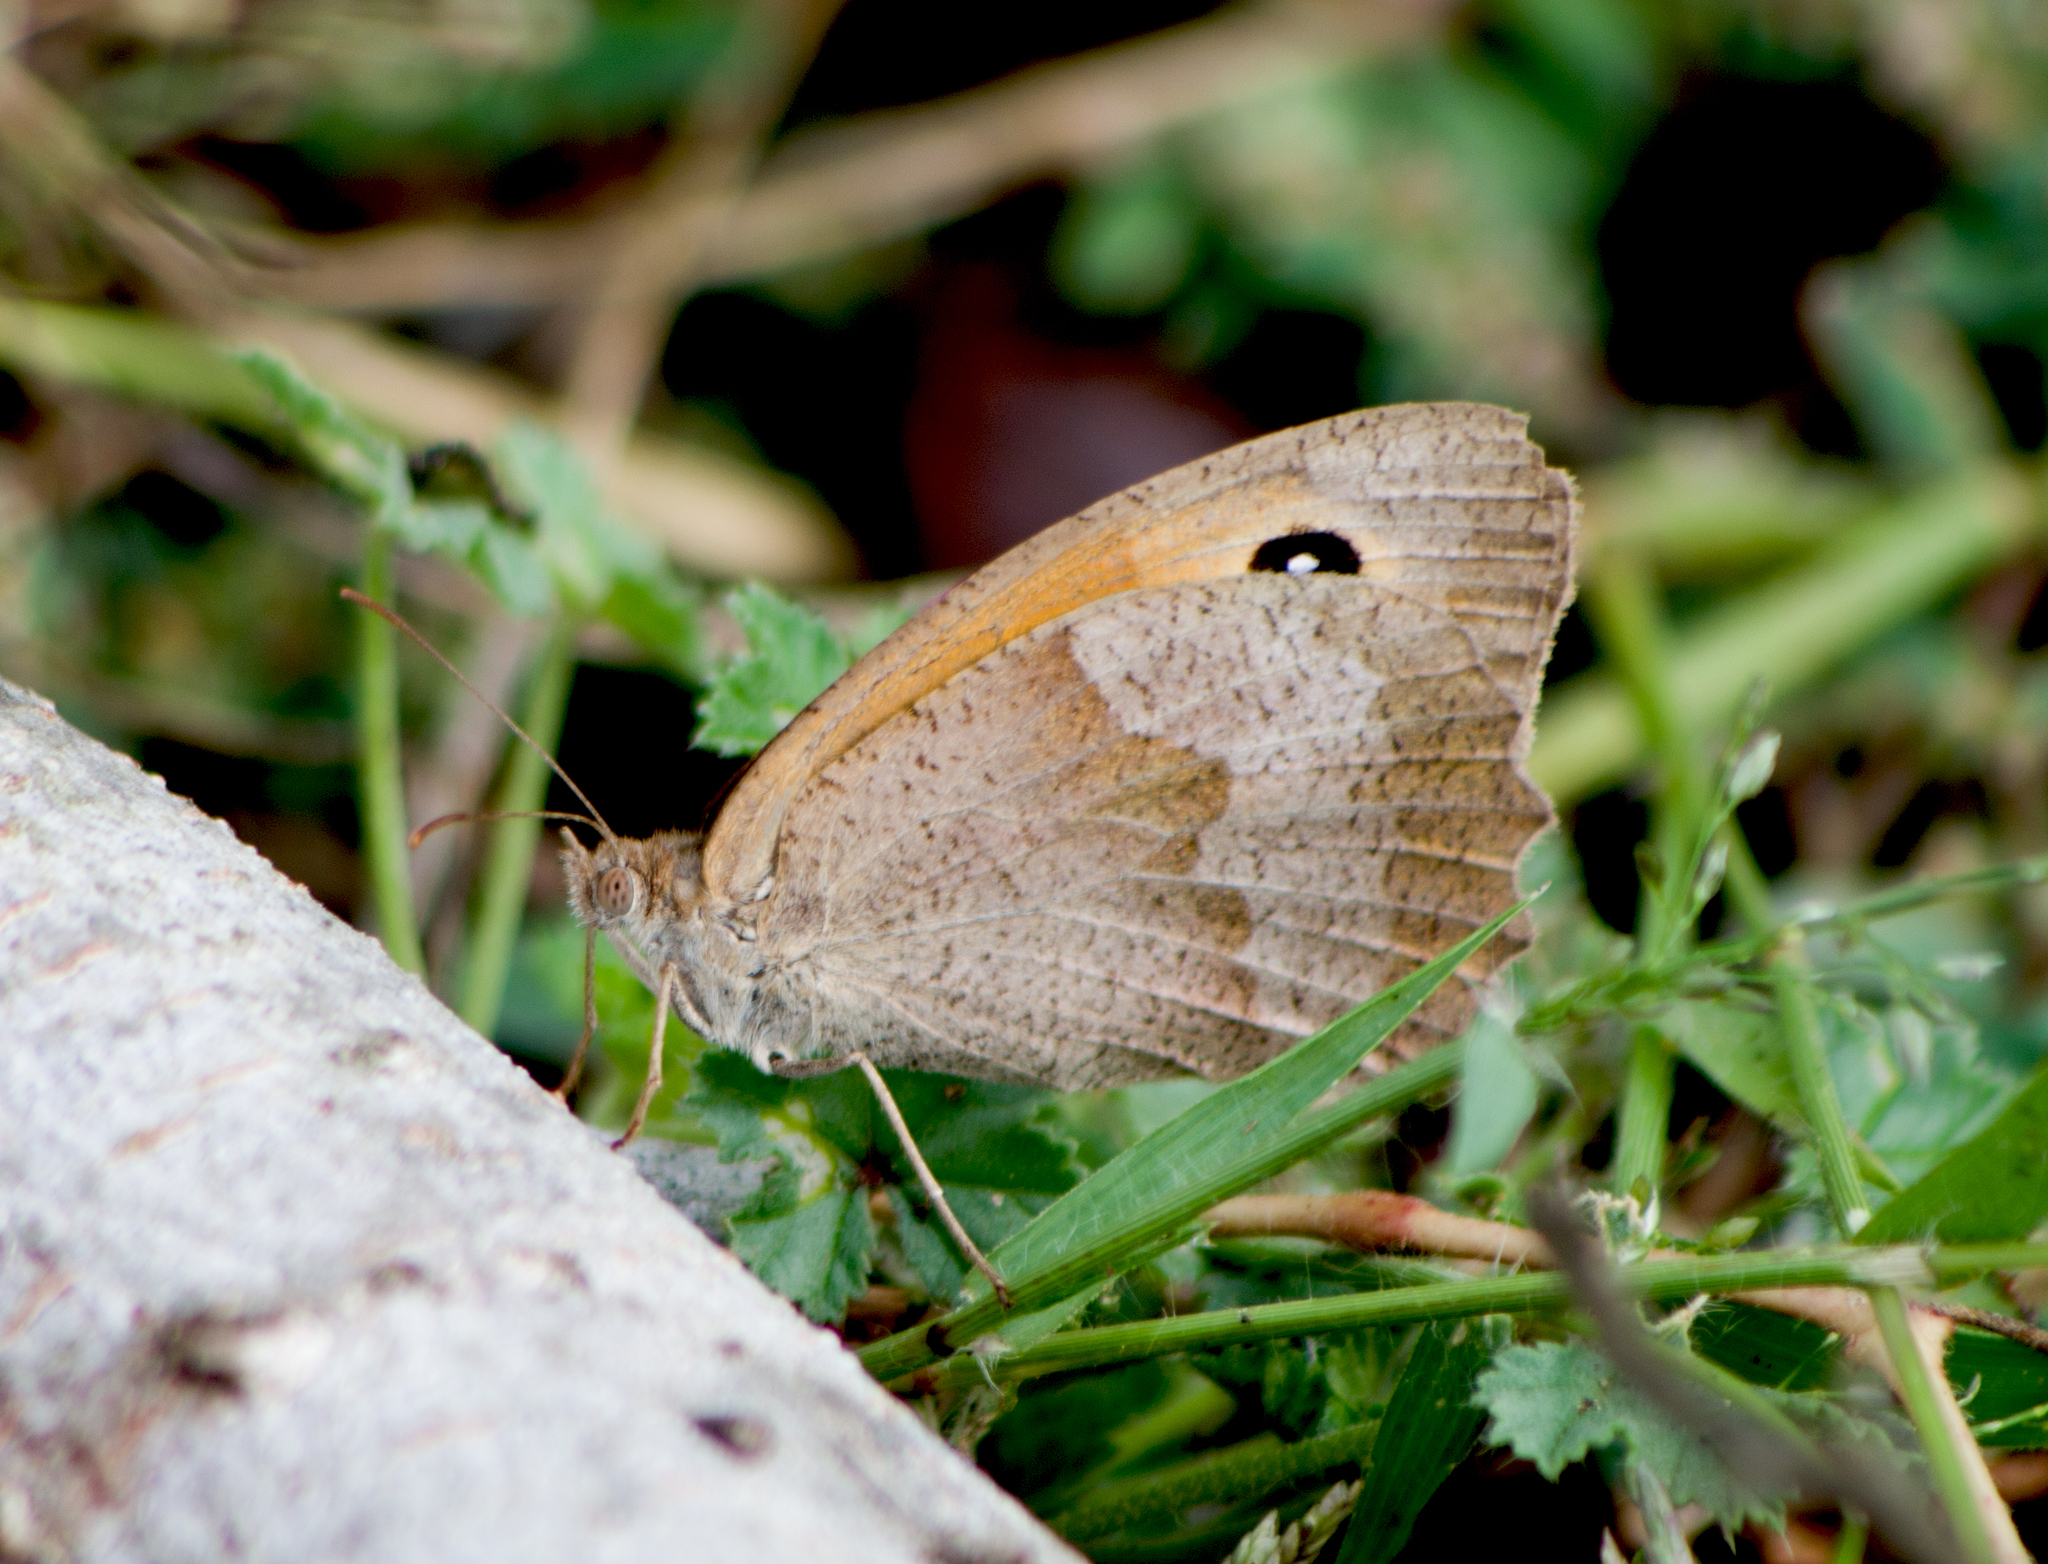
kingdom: Animalia
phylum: Arthropoda
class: Insecta
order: Lepidoptera
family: Nymphalidae
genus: Maniola
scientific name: Maniola jurtina
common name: Meadow brown
